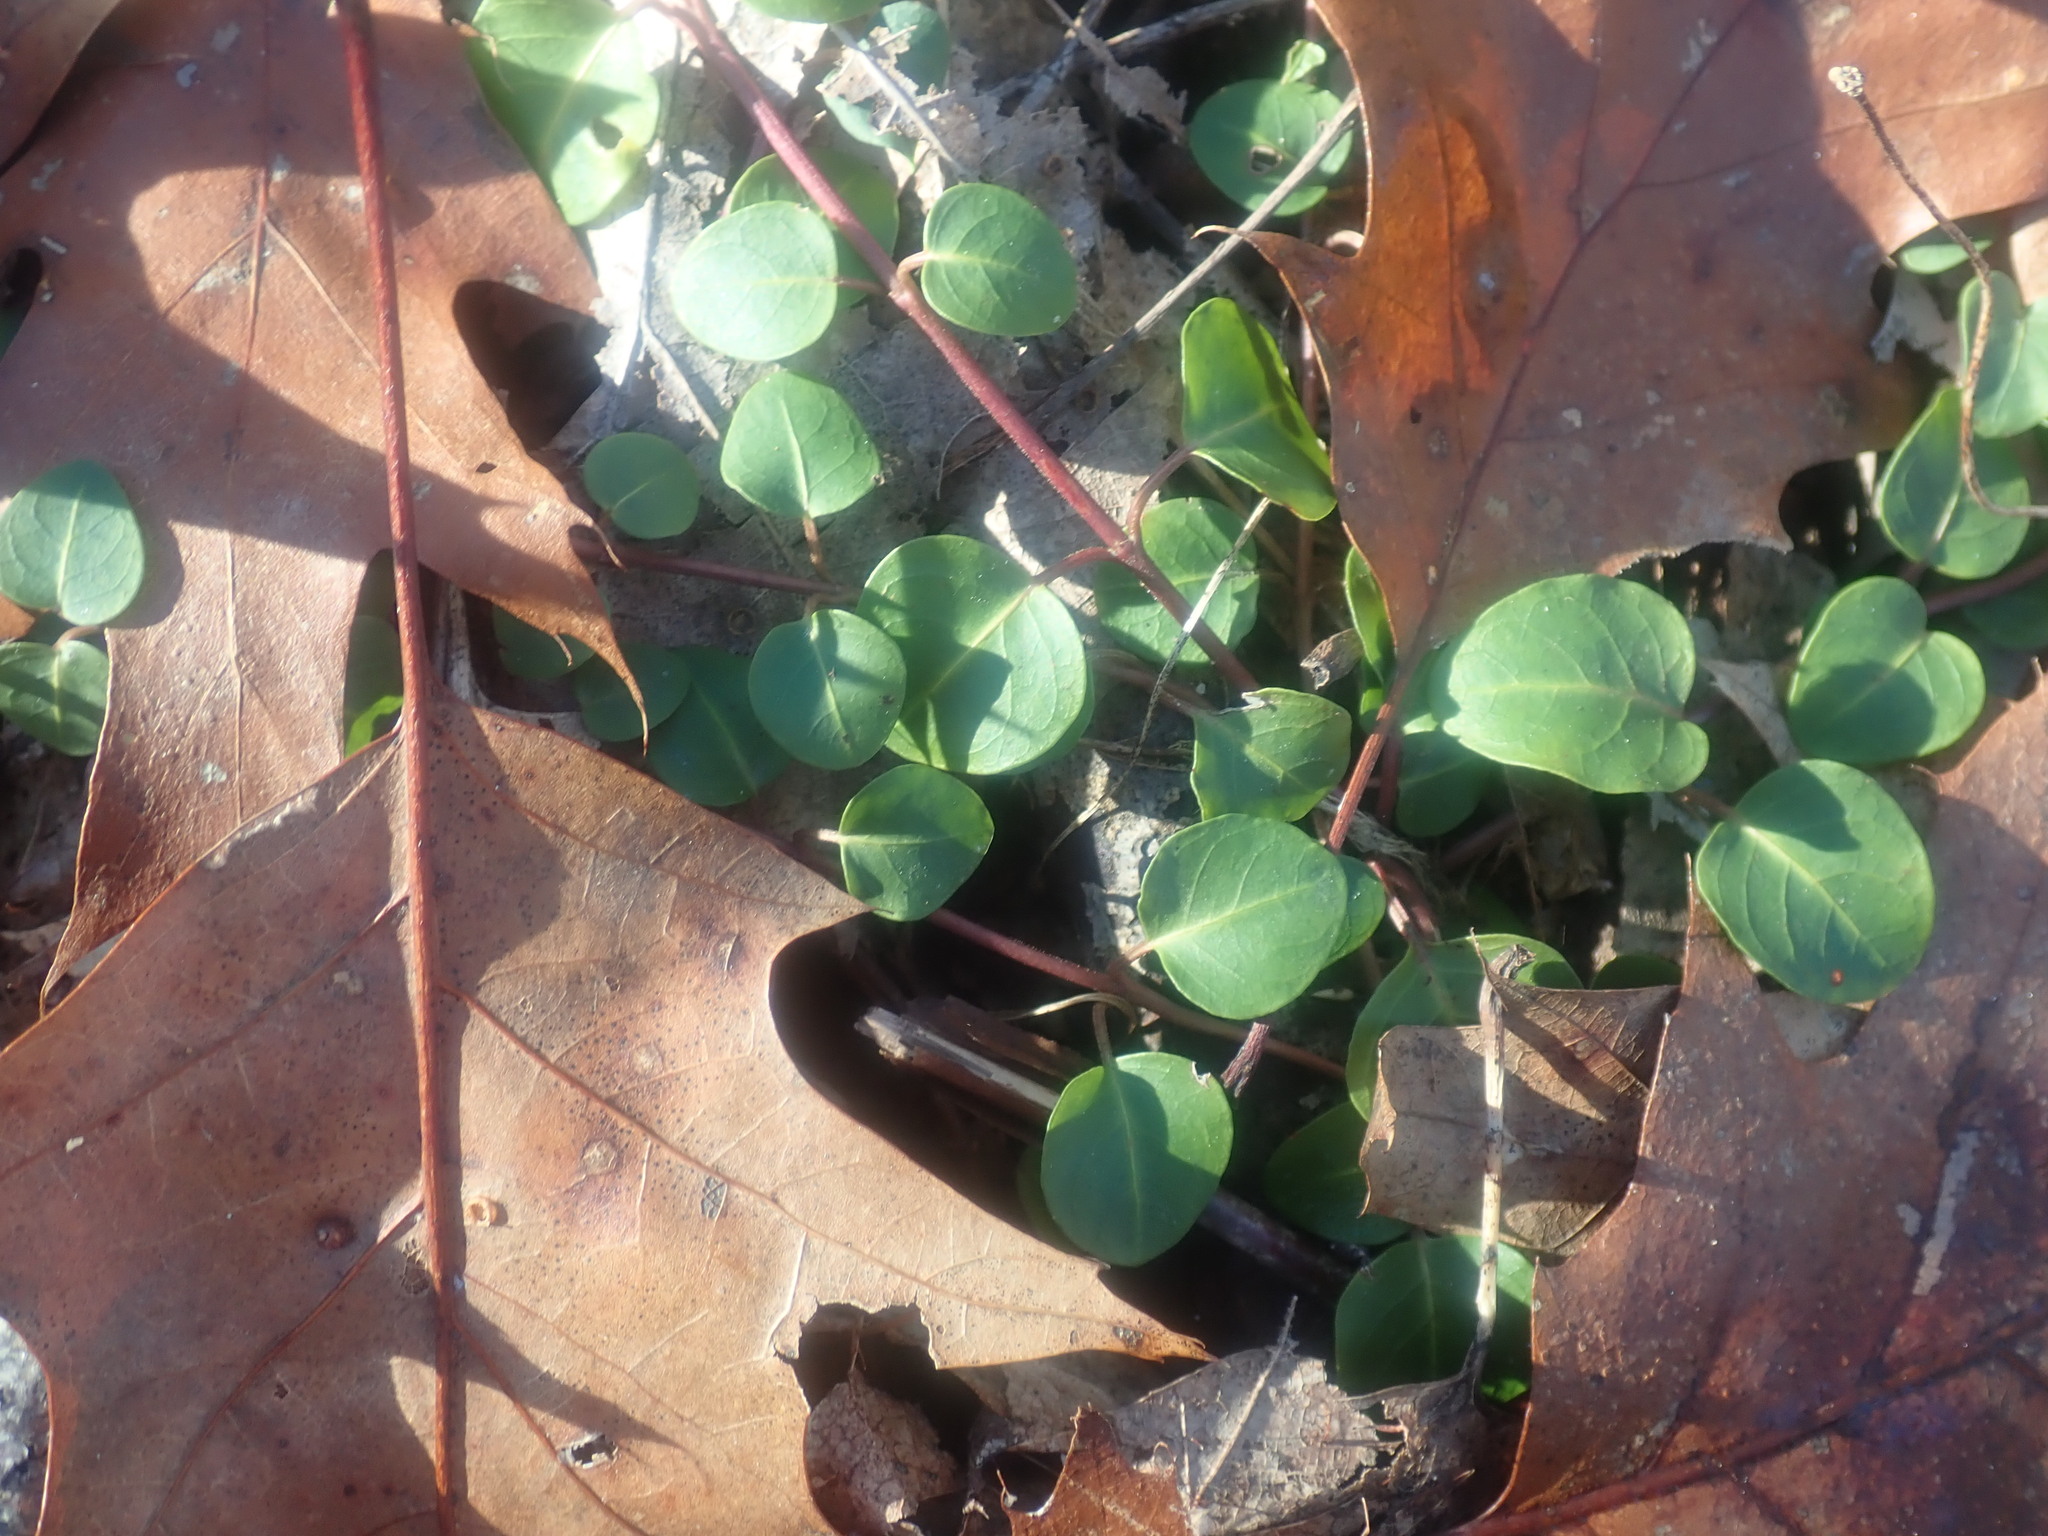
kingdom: Plantae
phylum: Tracheophyta
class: Magnoliopsida
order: Gentianales
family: Rubiaceae
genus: Mitchella
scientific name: Mitchella repens
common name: Partridge-berry
